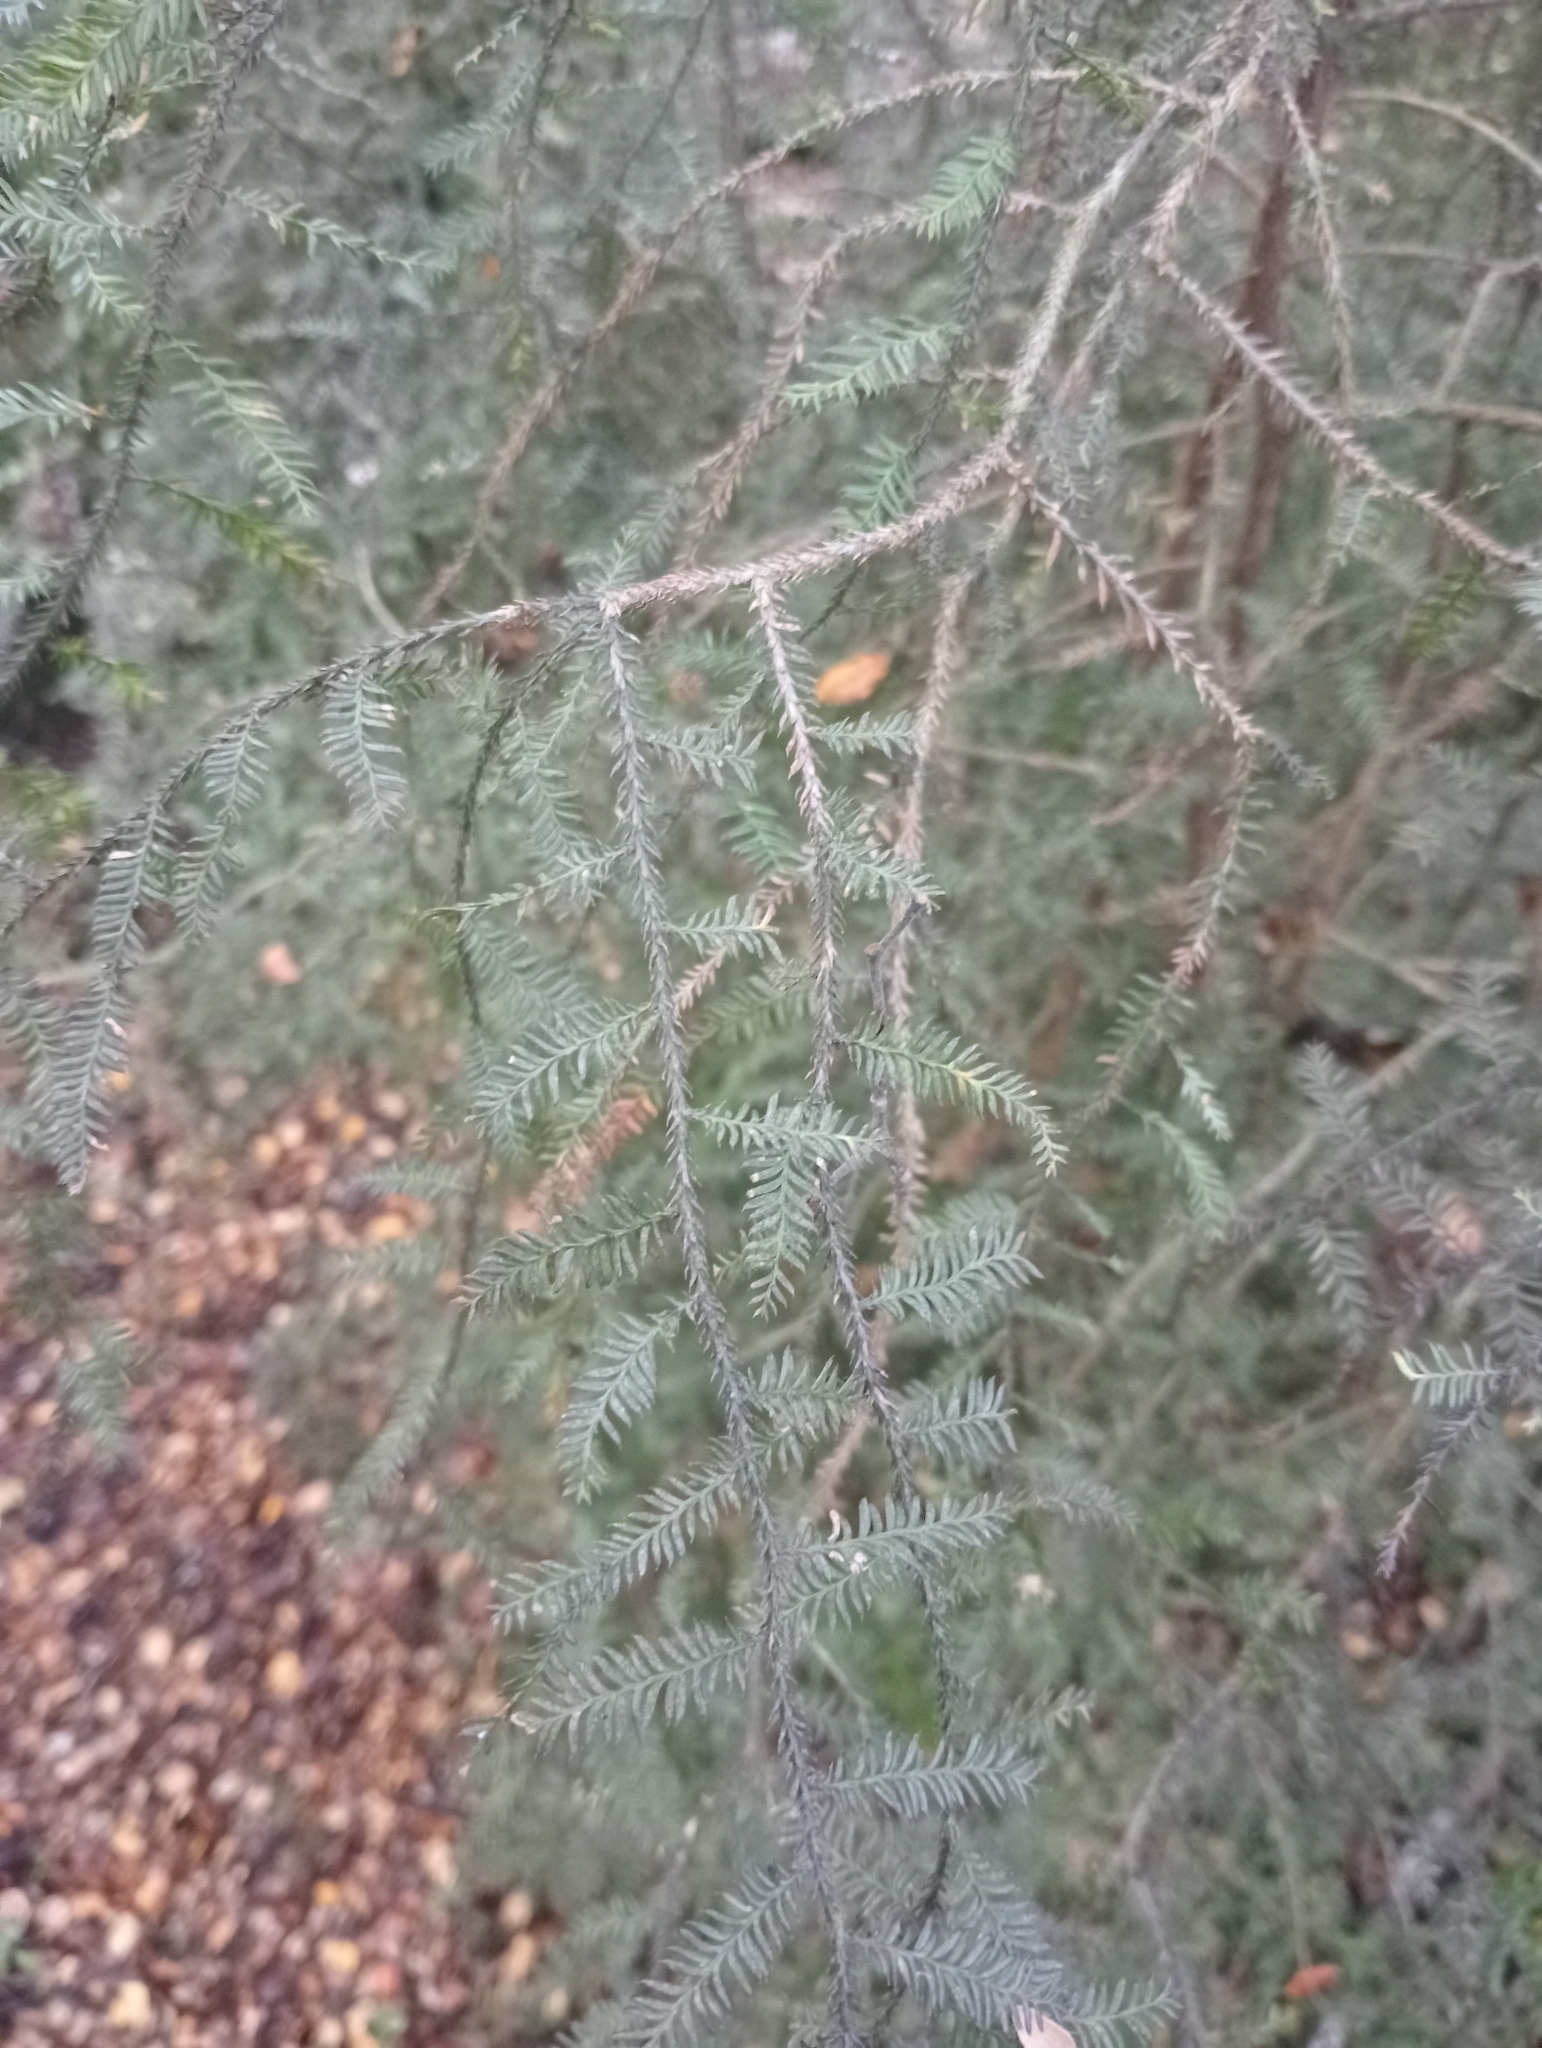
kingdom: Plantae
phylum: Tracheophyta
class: Pinopsida
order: Pinales
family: Podocarpaceae
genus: Dacrycarpus
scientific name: Dacrycarpus dacrydioides
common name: White pine
